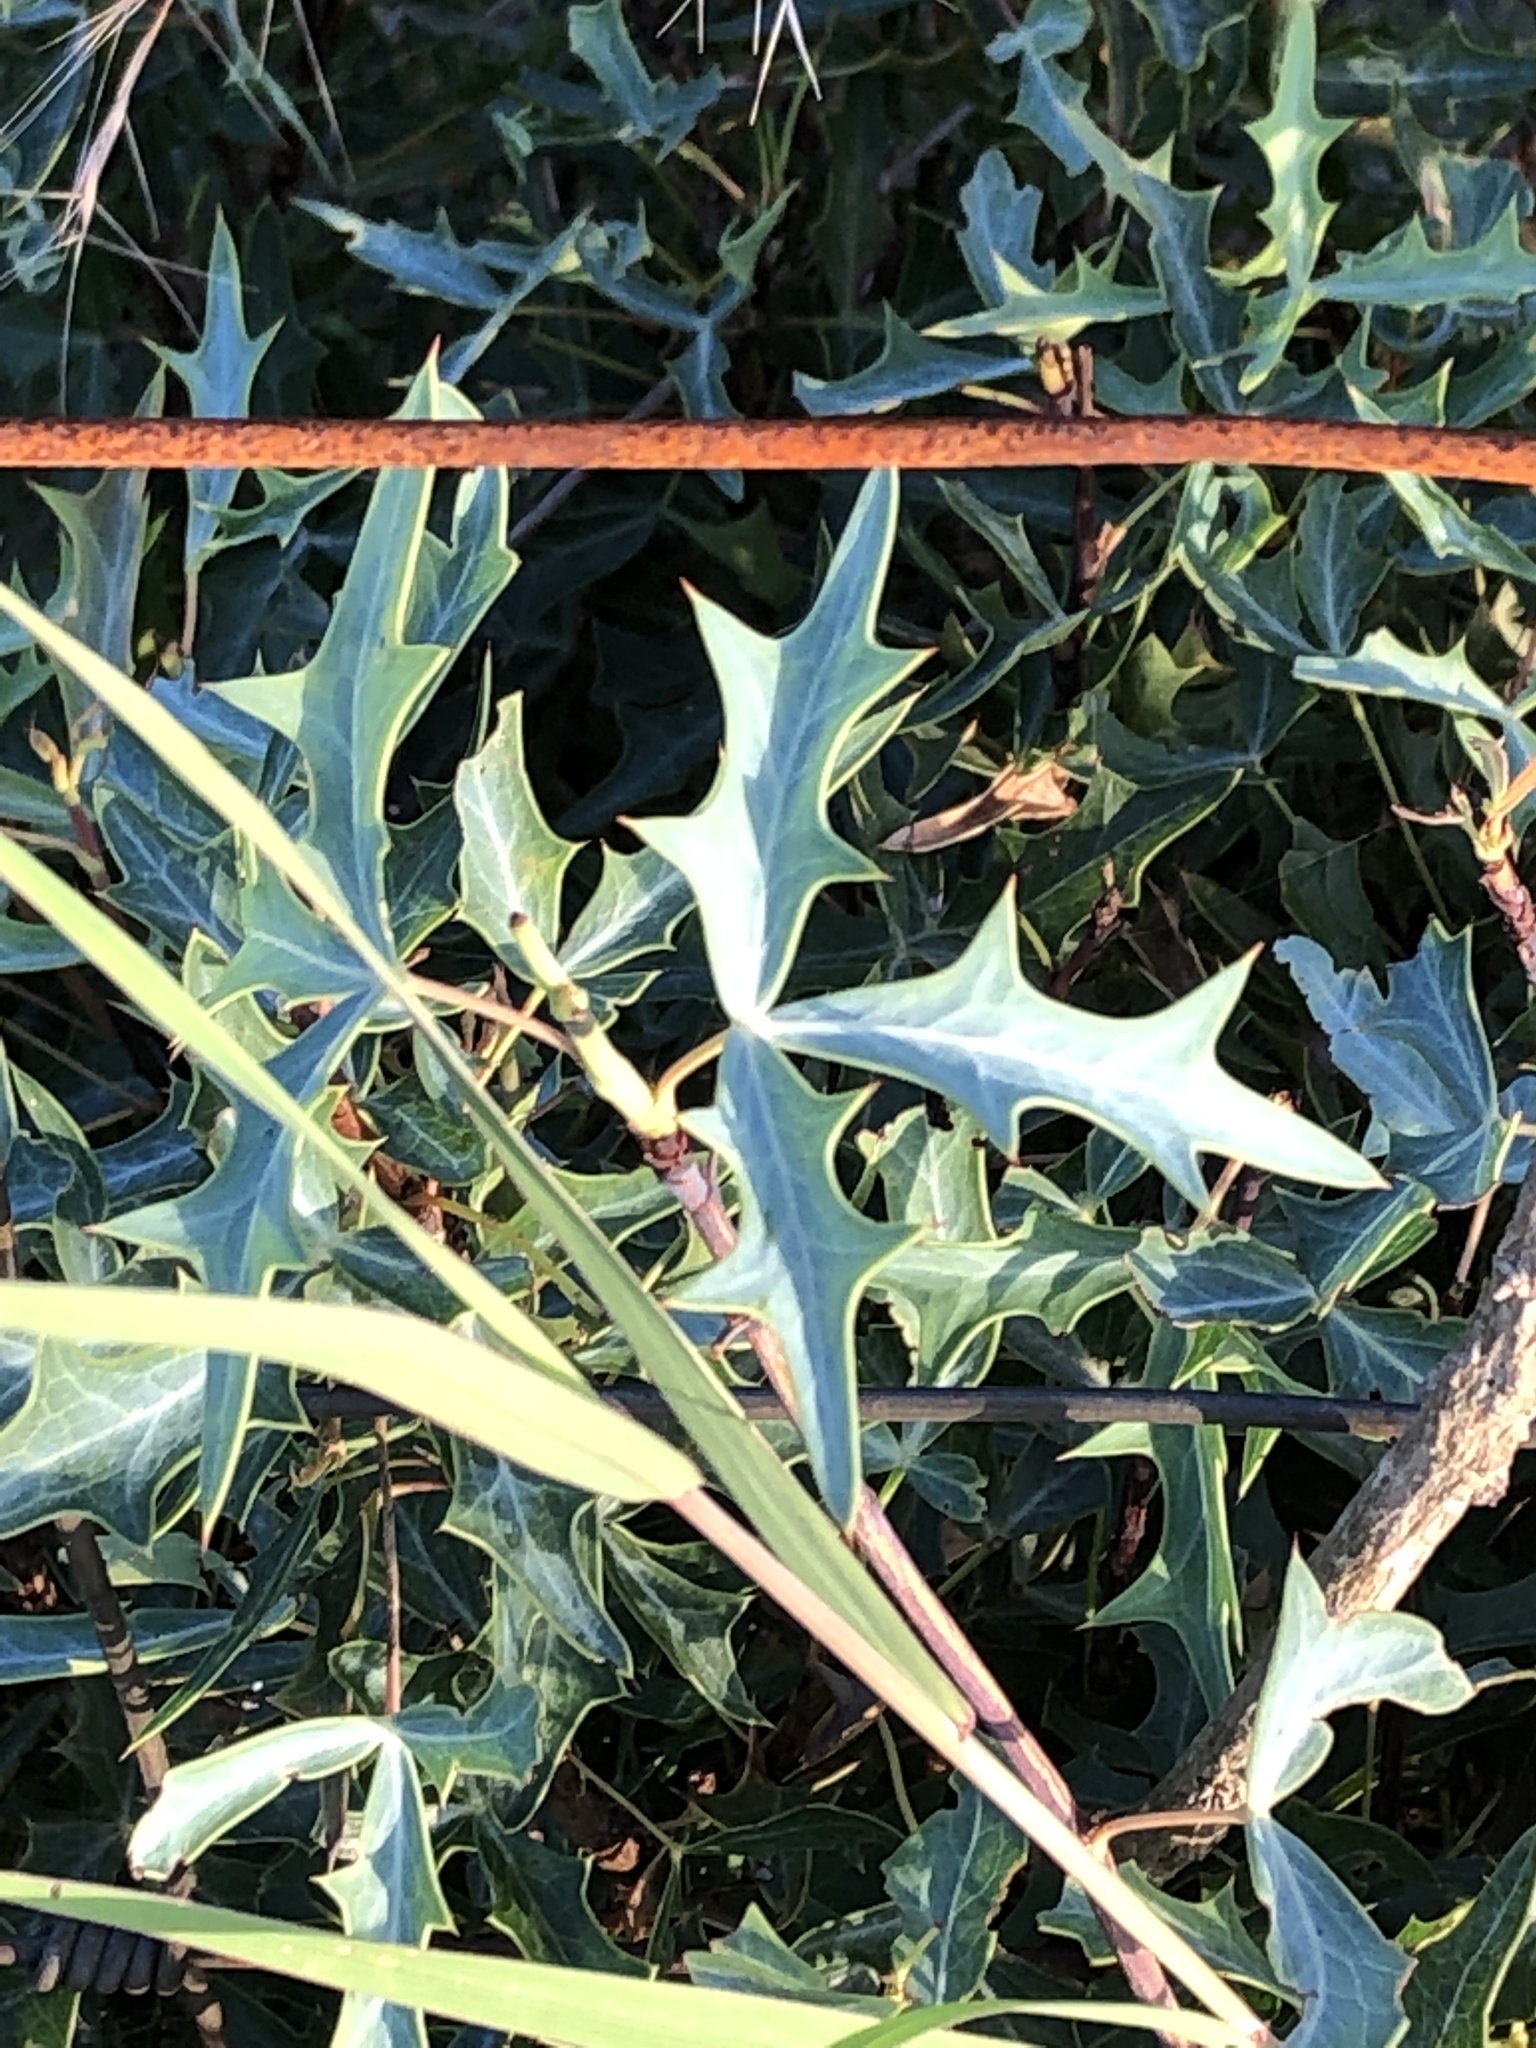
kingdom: Plantae
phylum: Tracheophyta
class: Magnoliopsida
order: Ranunculales
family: Berberidaceae
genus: Alloberberis
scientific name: Alloberberis trifoliolata
